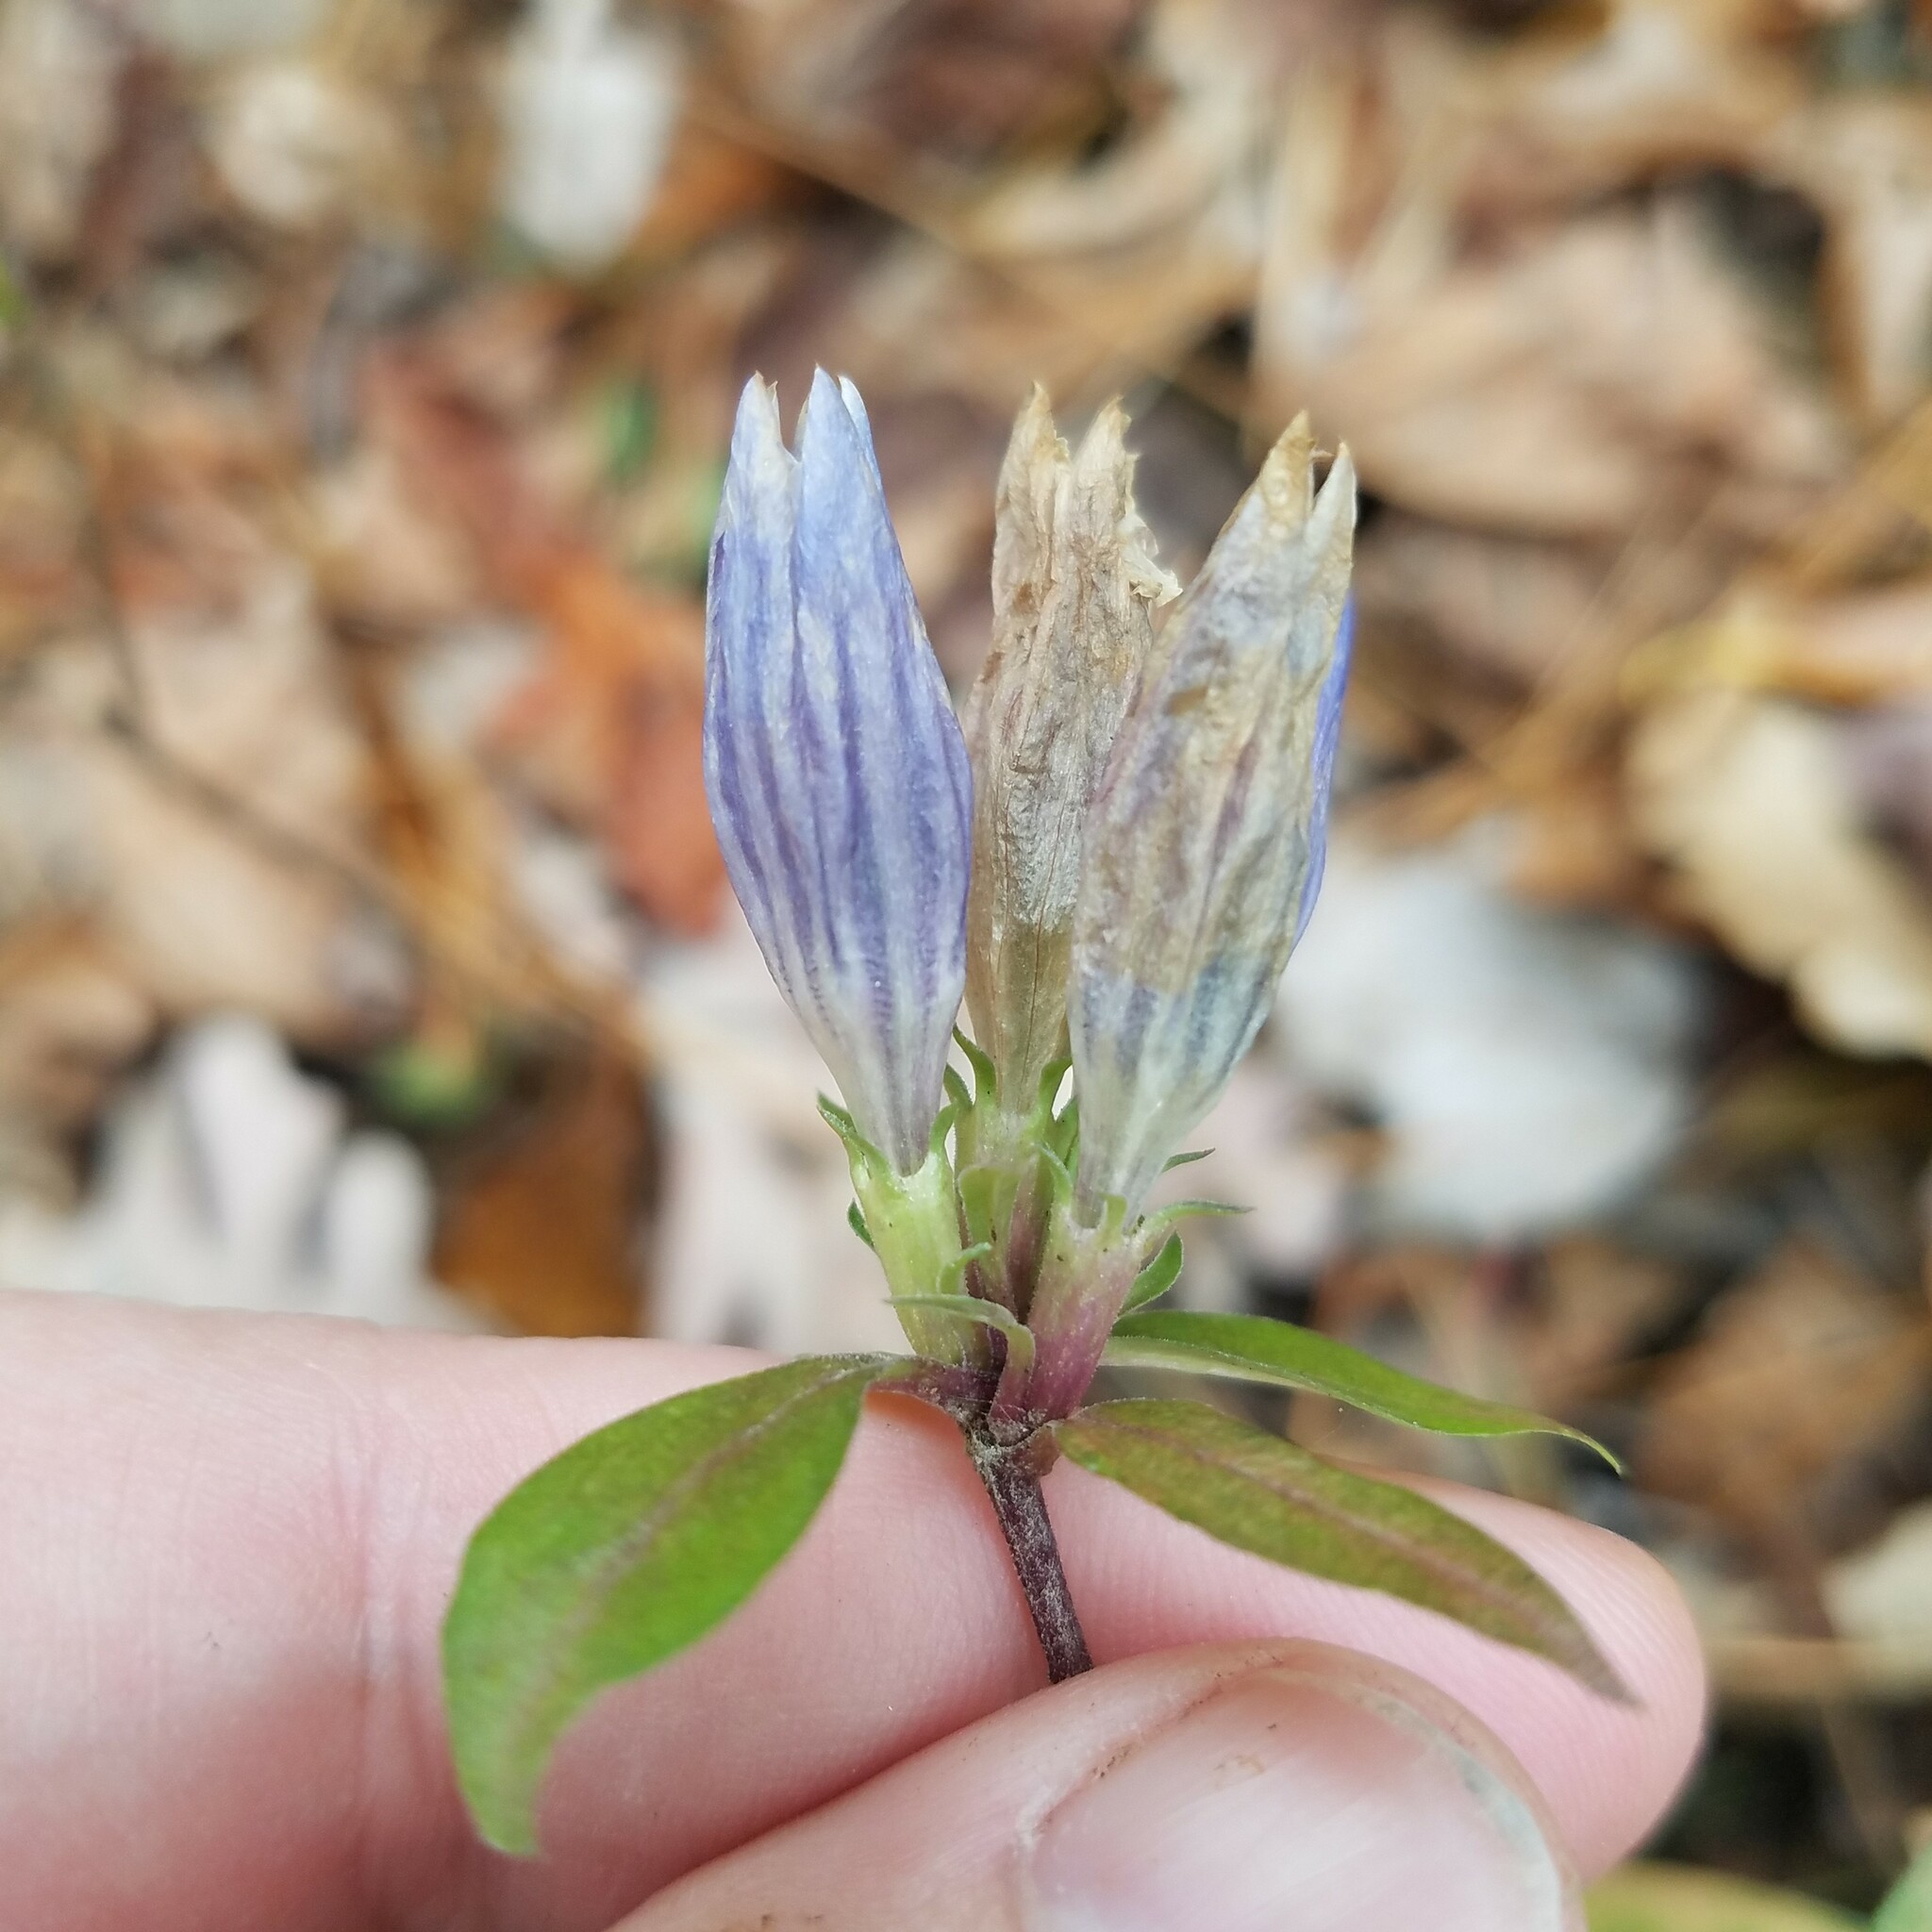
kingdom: Plantae
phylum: Tracheophyta
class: Magnoliopsida
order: Gentianales
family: Gentianaceae
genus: Gentiana
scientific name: Gentiana decora
